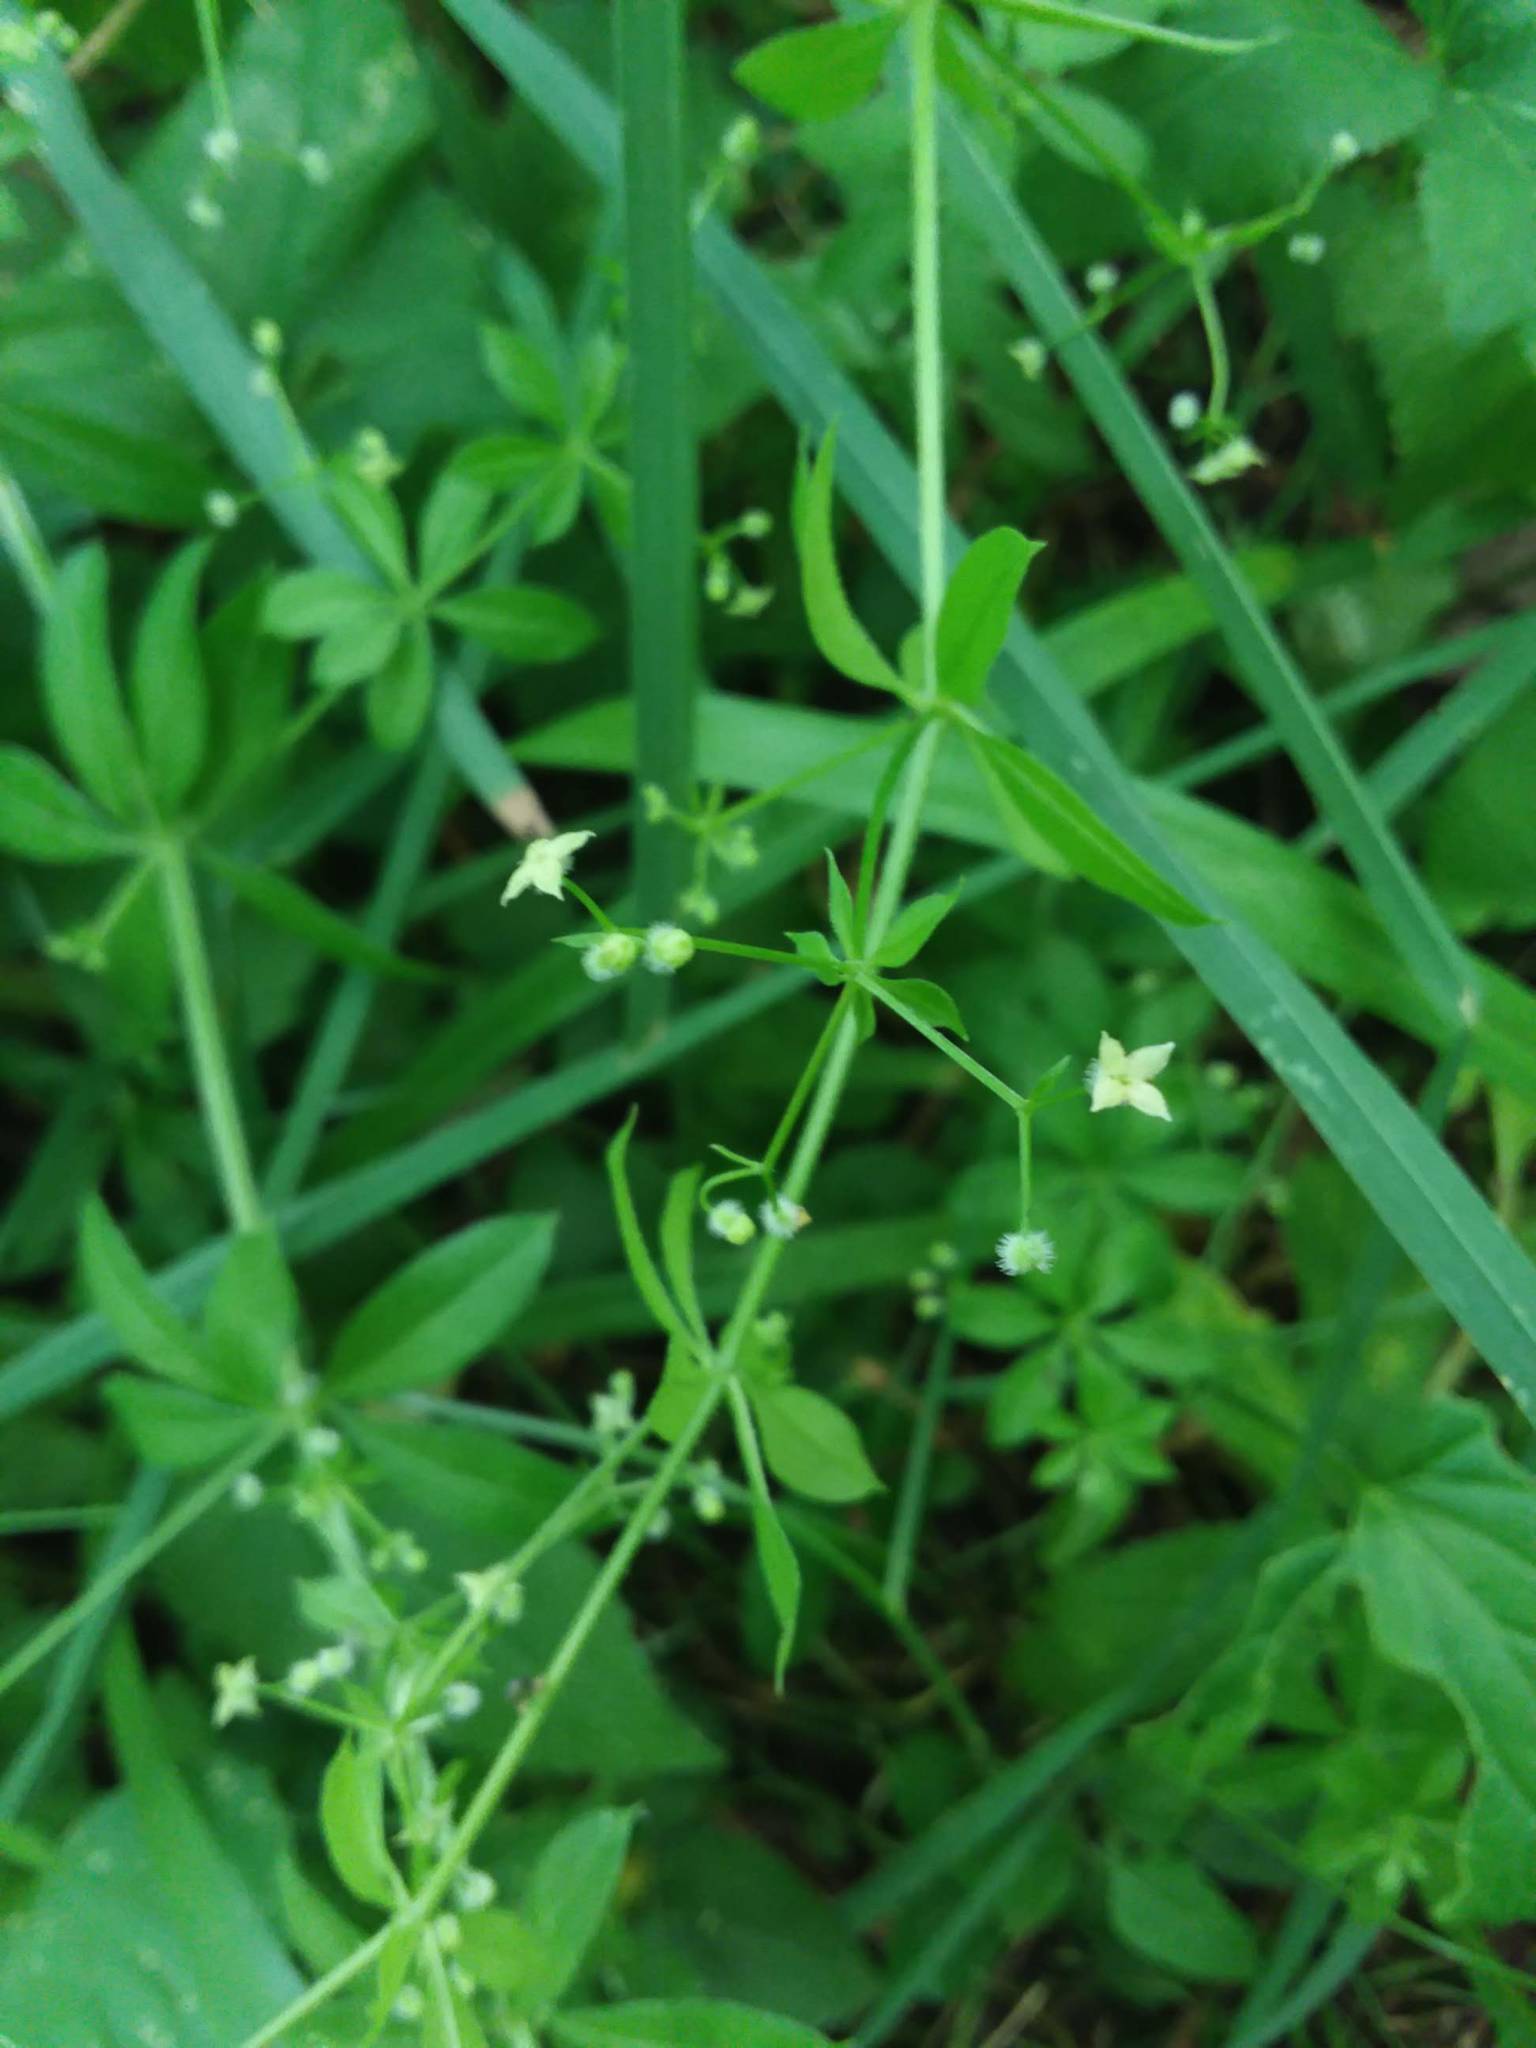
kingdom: Plantae
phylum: Tracheophyta
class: Magnoliopsida
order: Gentianales
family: Rubiaceae
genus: Galium
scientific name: Galium triflorum
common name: Fragrant bedstraw
